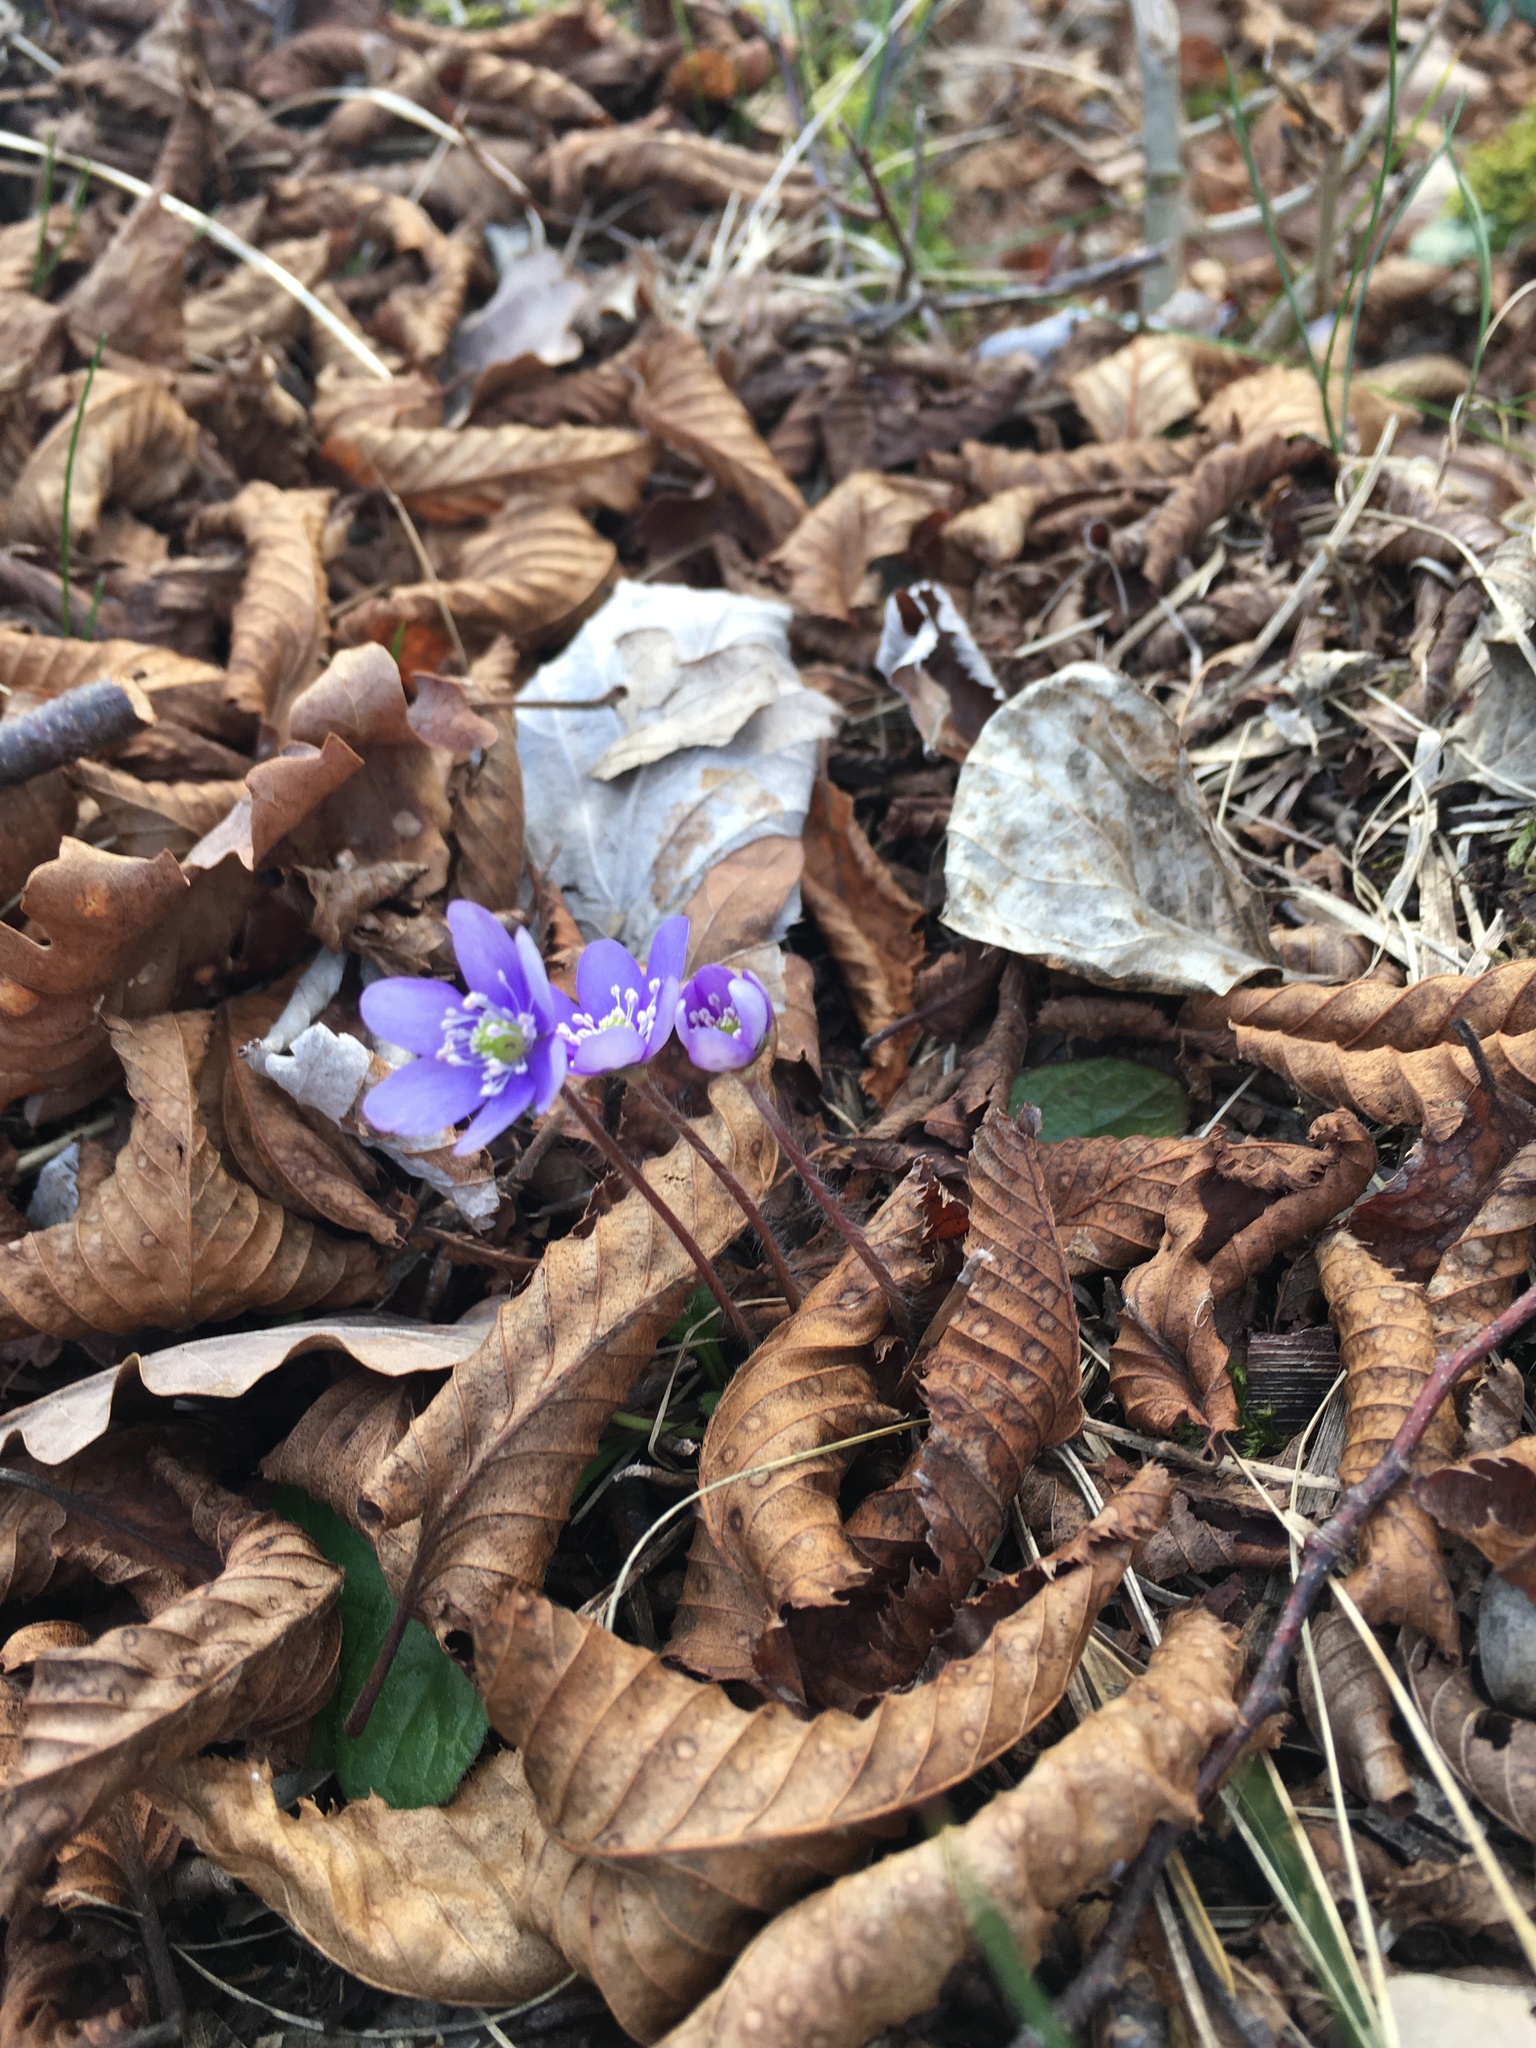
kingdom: Plantae
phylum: Tracheophyta
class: Magnoliopsida
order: Ranunculales
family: Ranunculaceae
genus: Hepatica
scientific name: Hepatica nobilis
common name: Liverleaf
